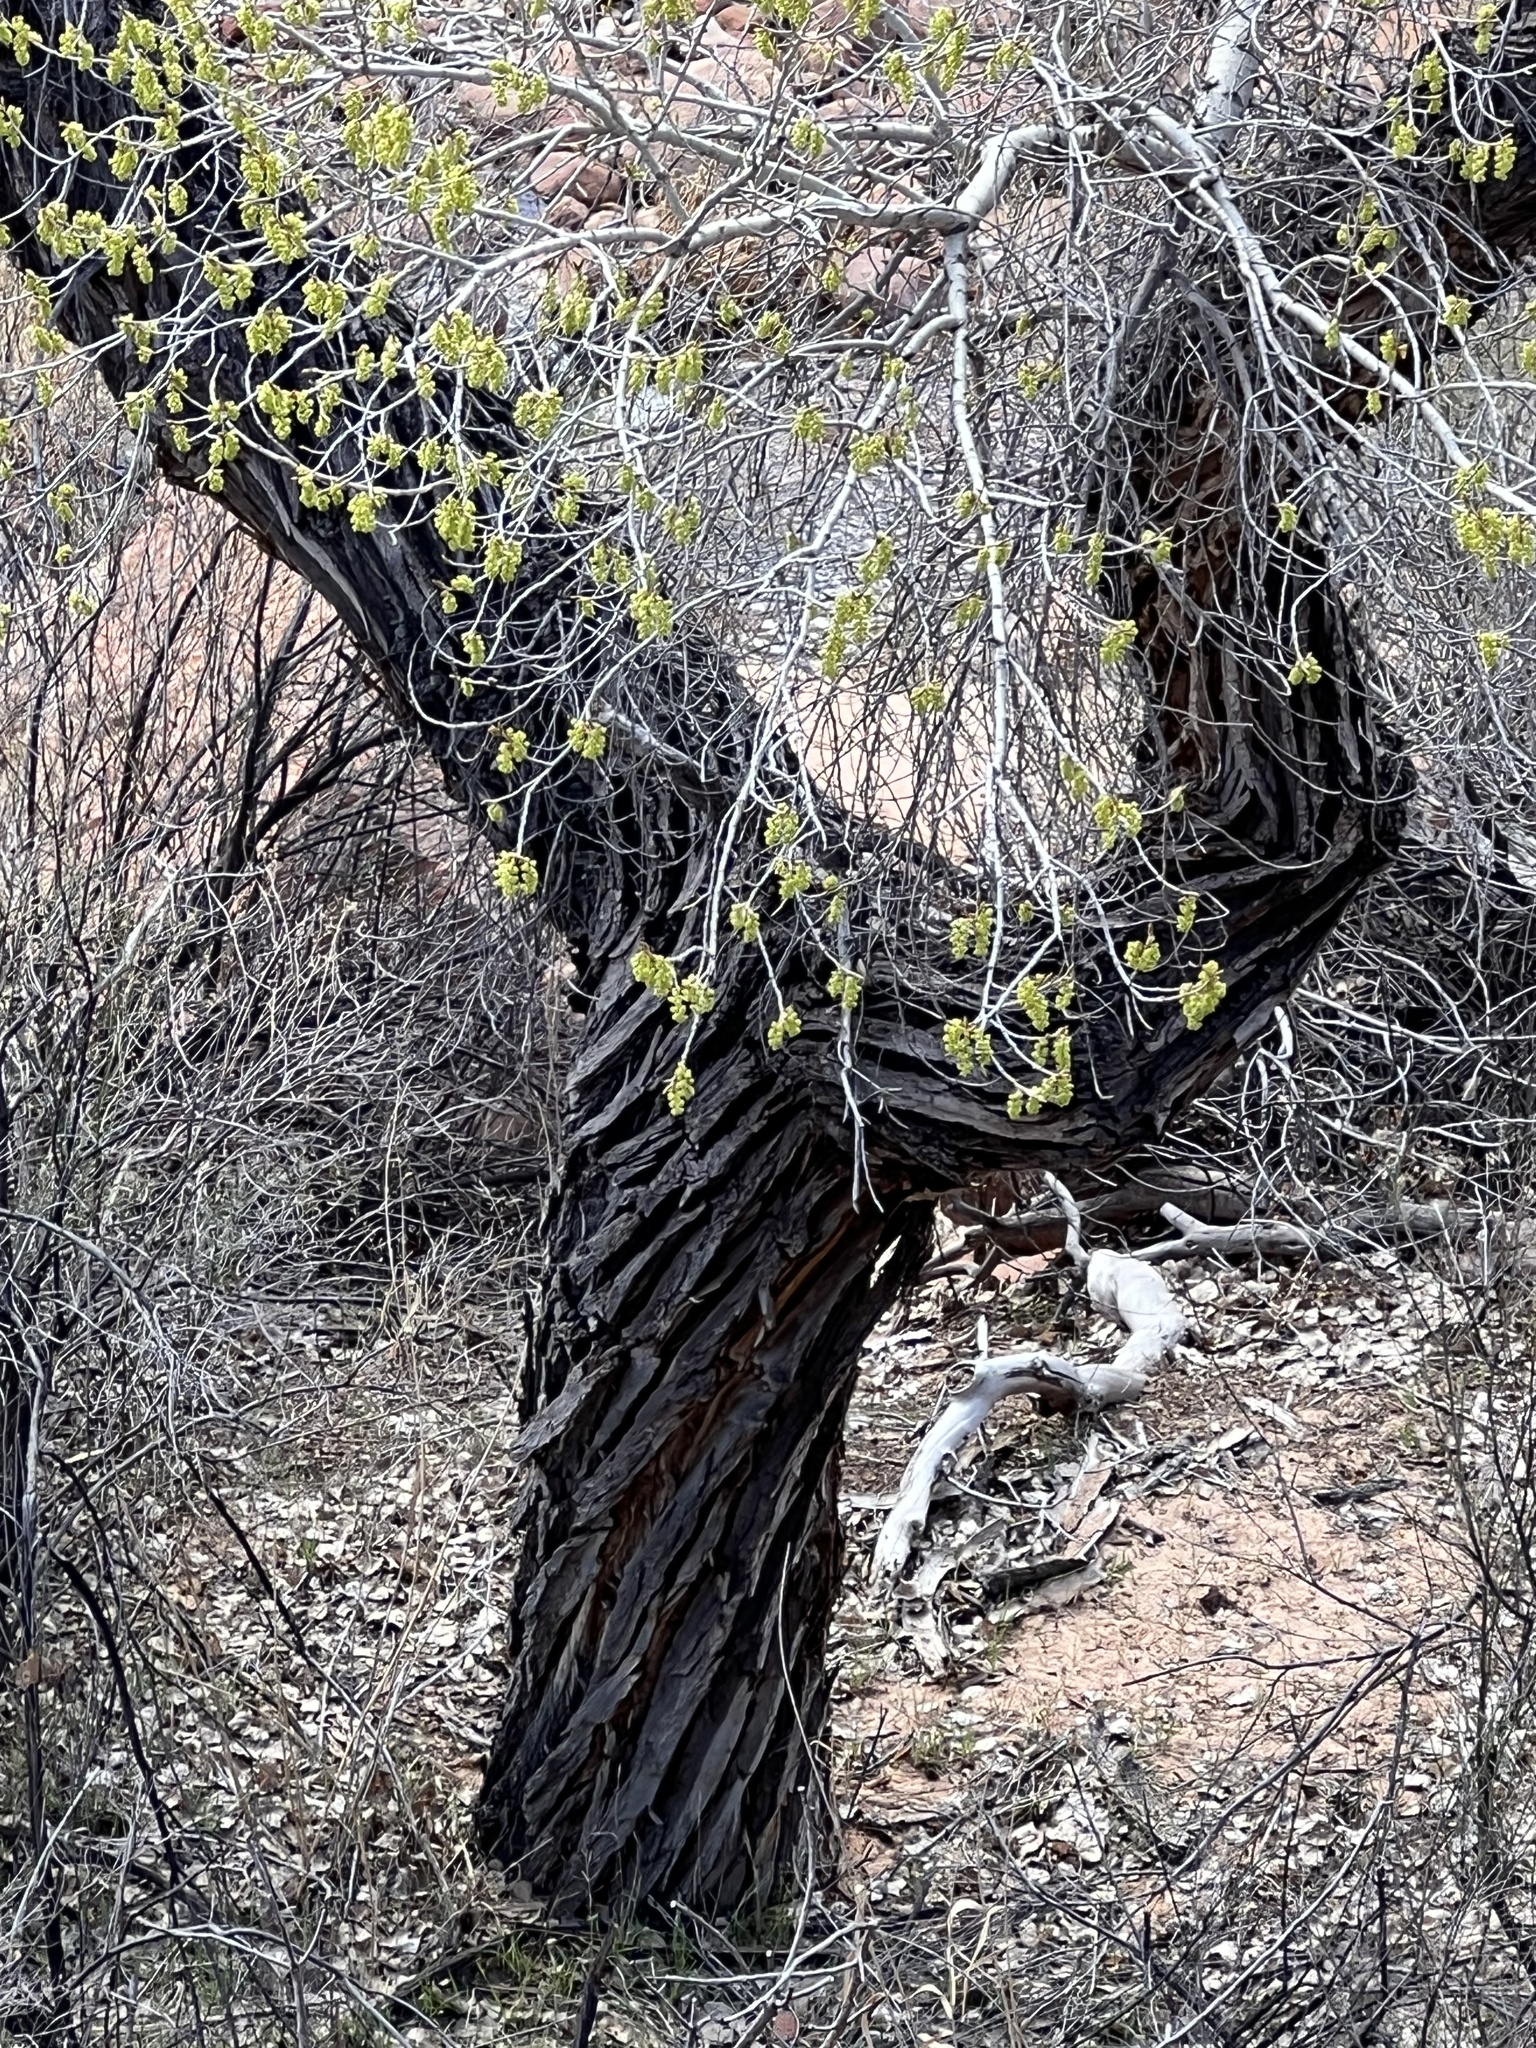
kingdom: Plantae
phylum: Tracheophyta
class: Magnoliopsida
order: Malpighiales
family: Salicaceae
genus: Populus
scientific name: Populus fremontii
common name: Fremont's cottonwood
